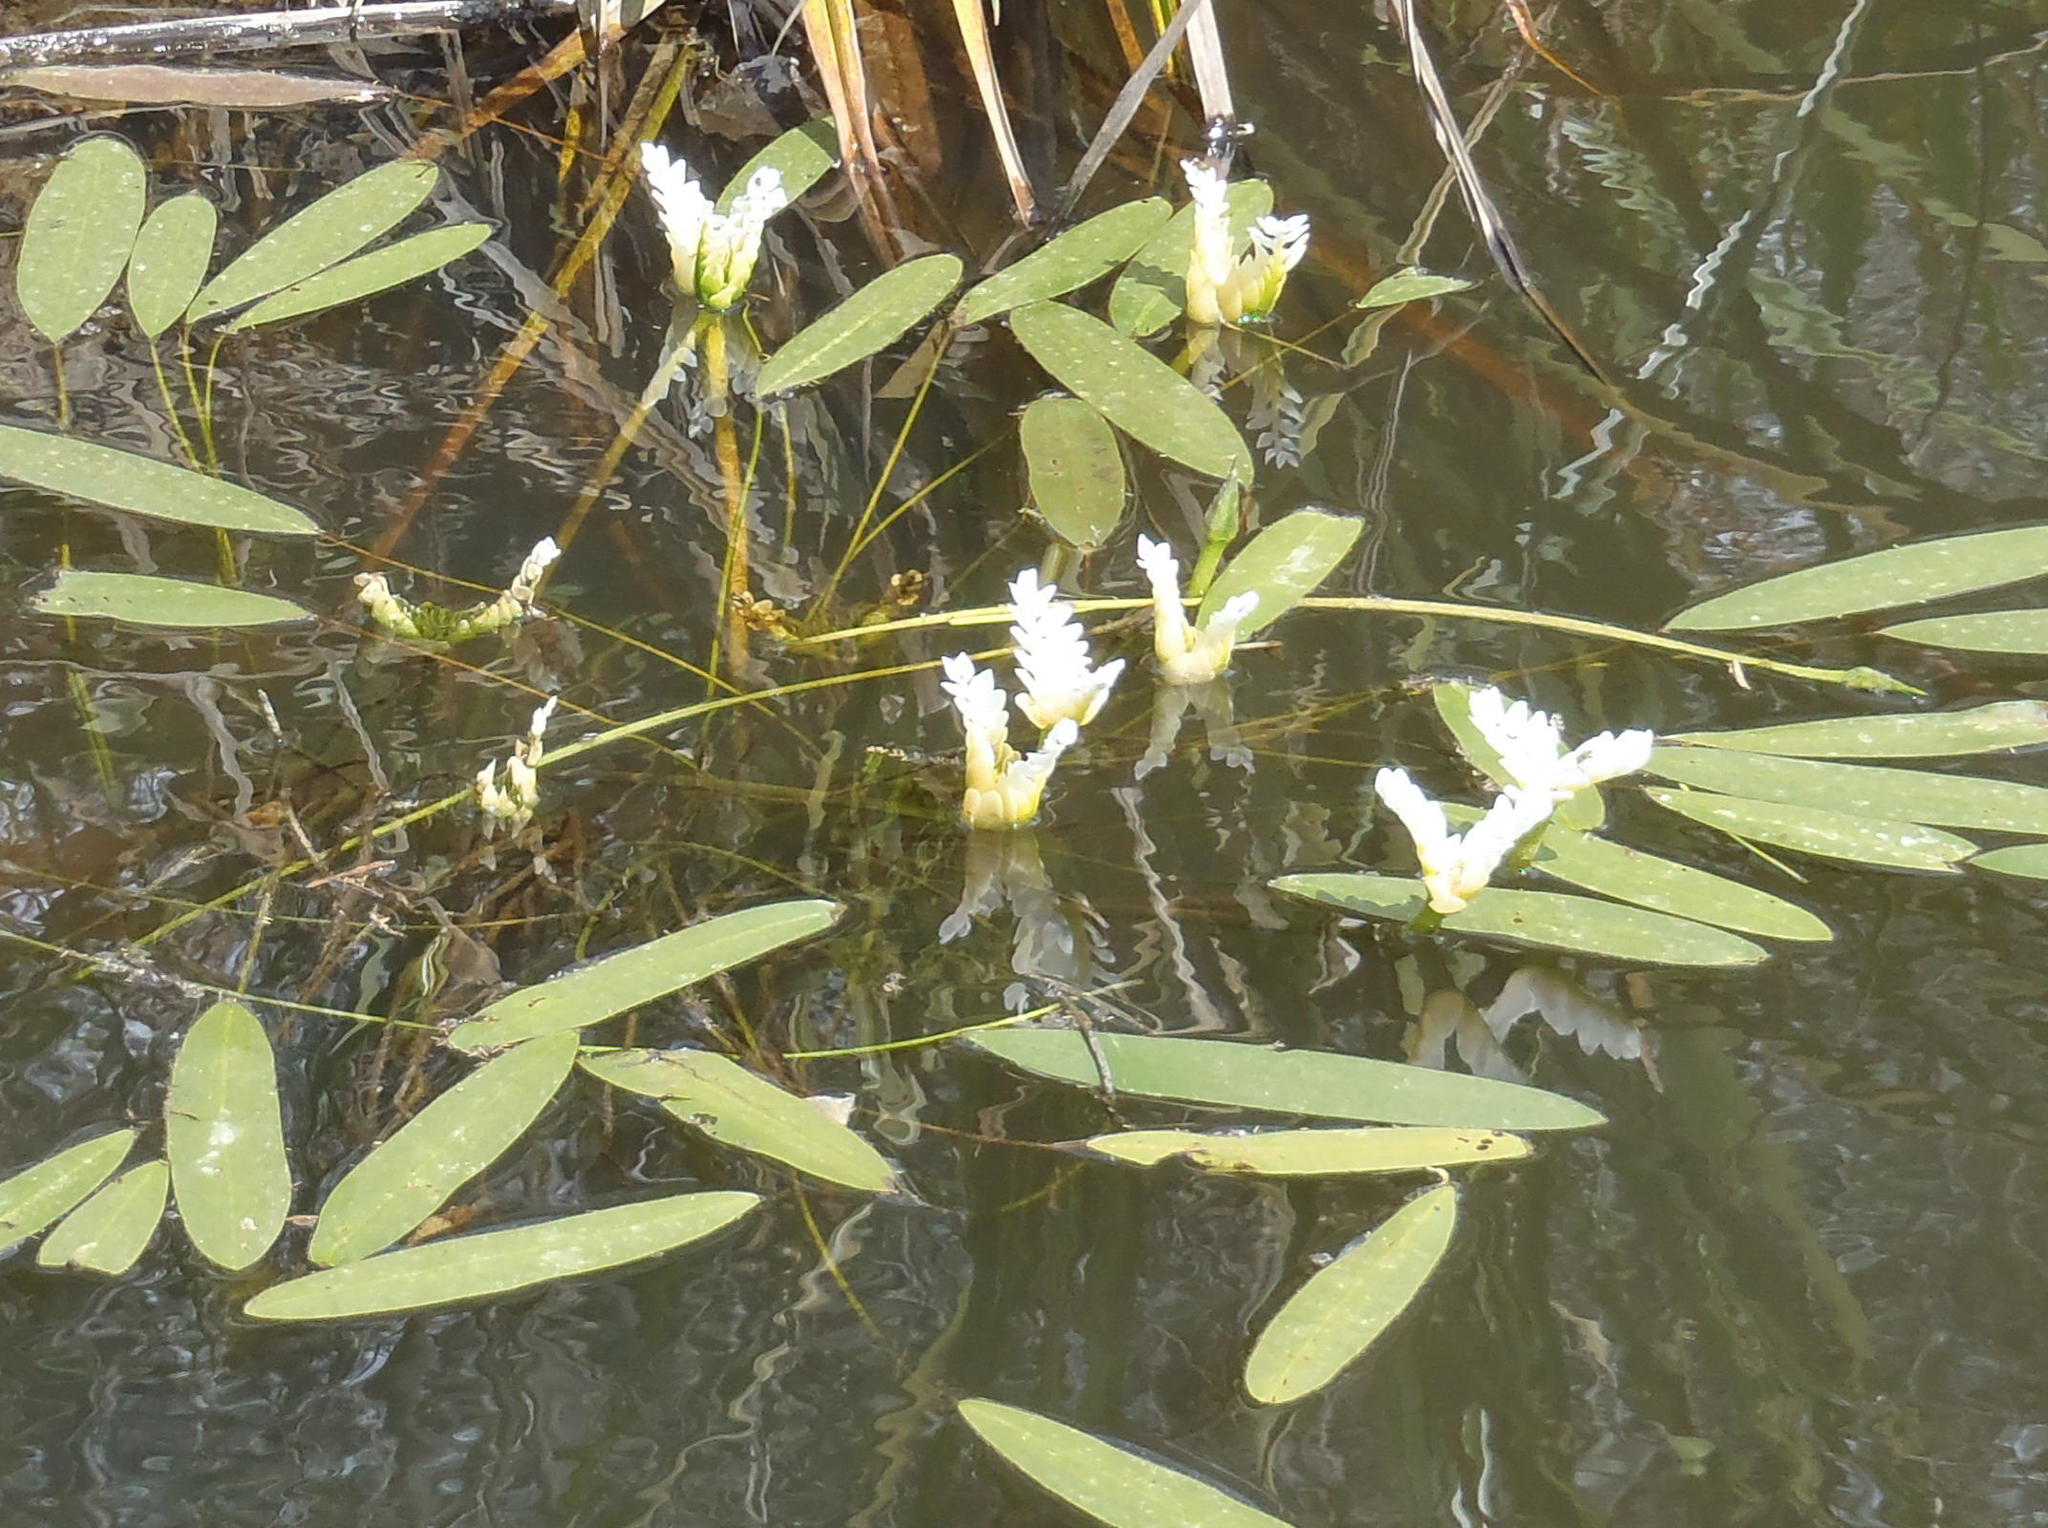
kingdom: Plantae
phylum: Tracheophyta
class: Liliopsida
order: Alismatales
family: Aponogetonaceae
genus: Aponogeton
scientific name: Aponogeton distachyos
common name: Cape-pondweed
